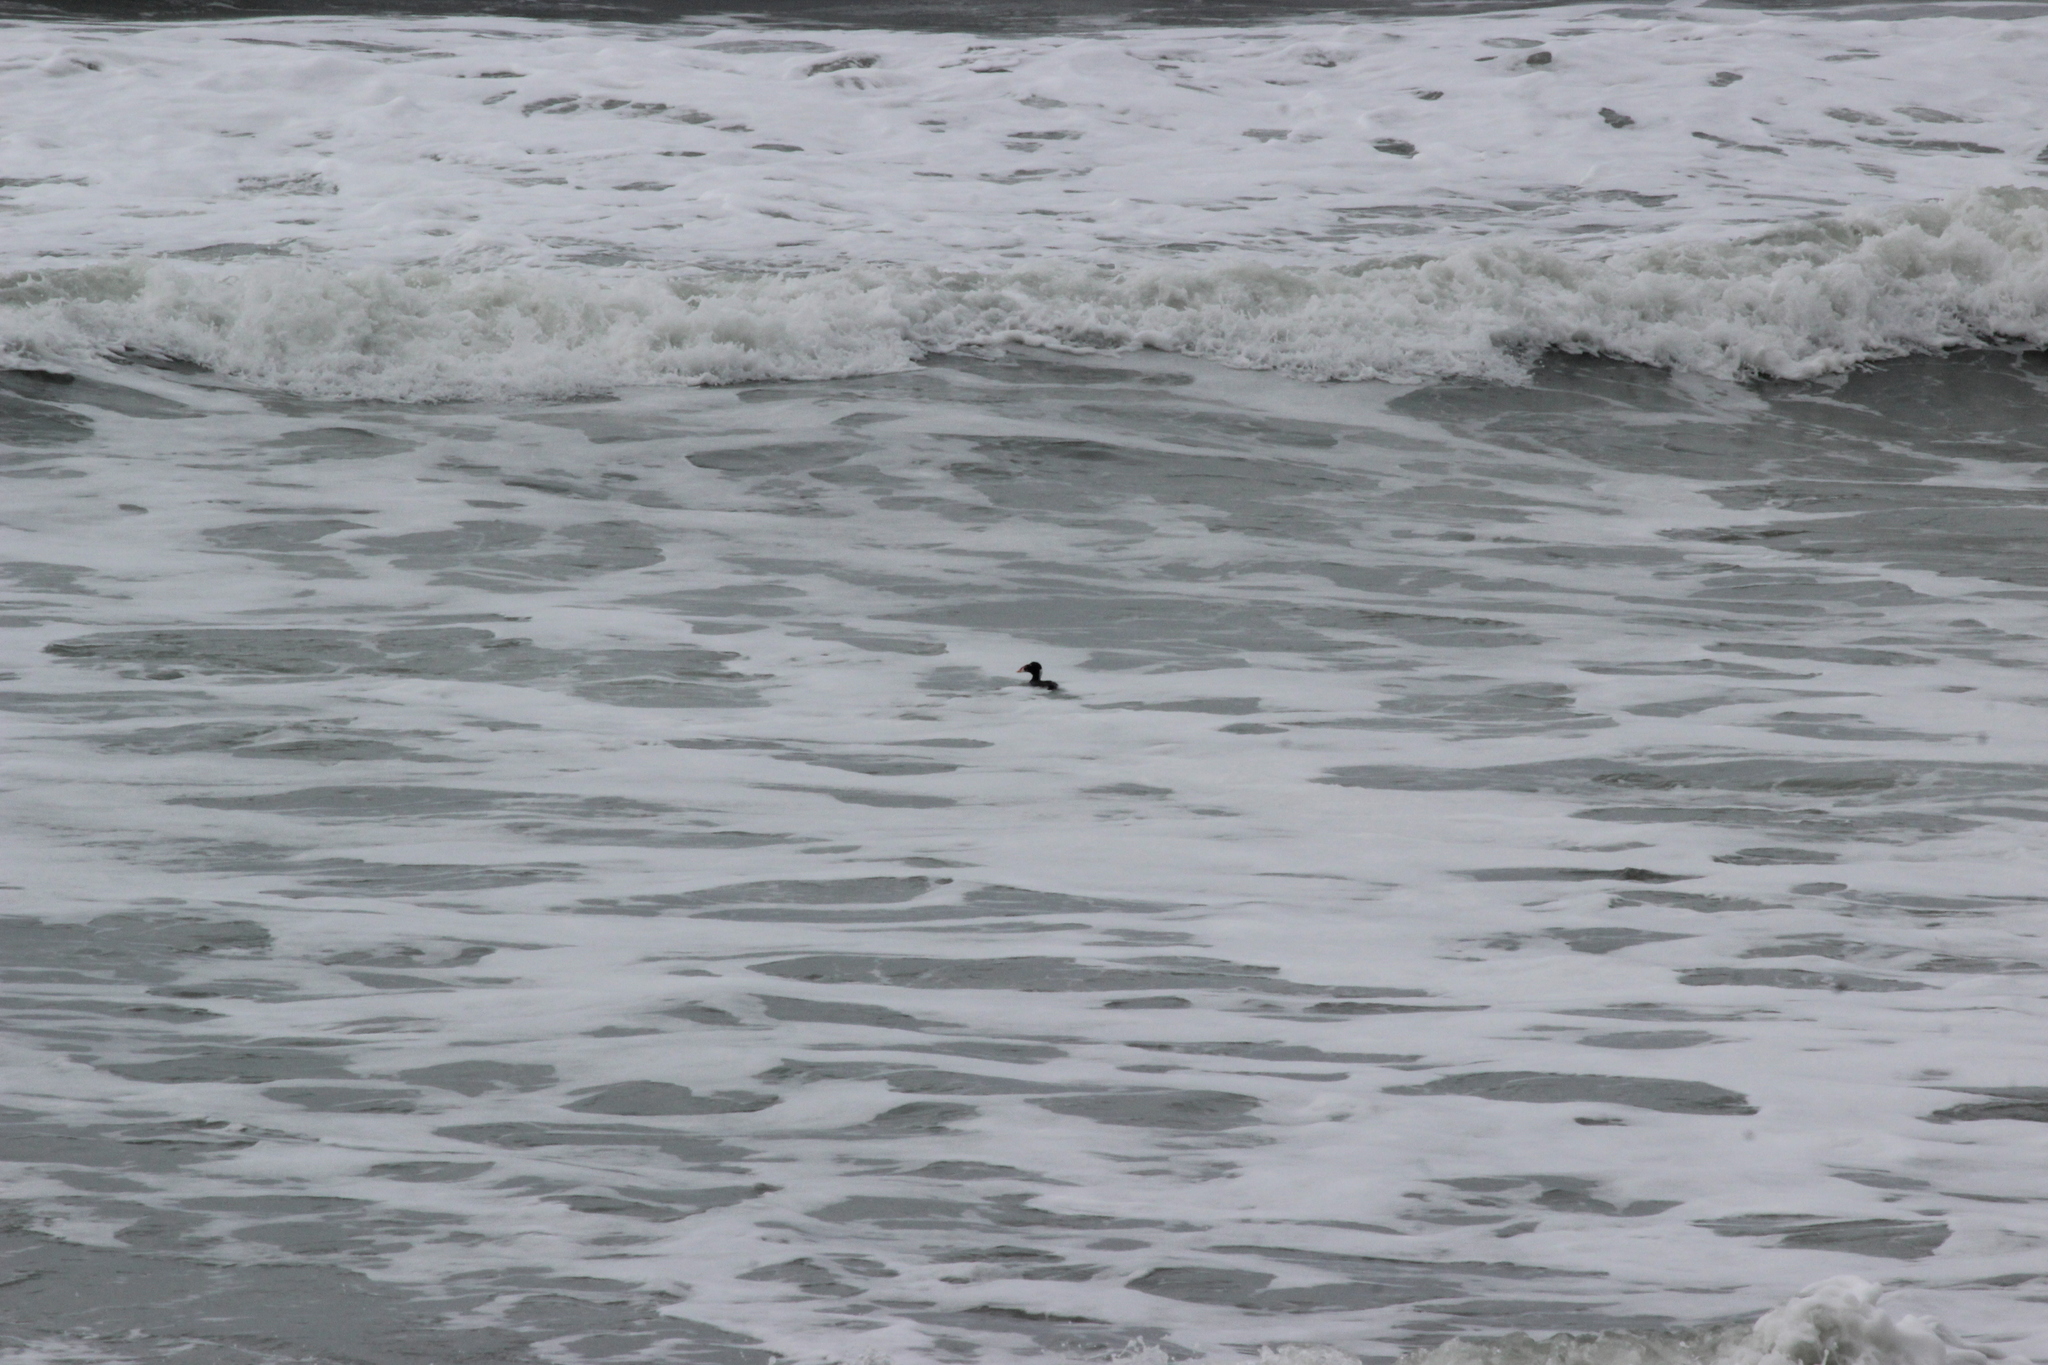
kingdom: Animalia
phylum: Chordata
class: Aves
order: Anseriformes
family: Anatidae
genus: Melanitta
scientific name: Melanitta perspicillata
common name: Surf scoter
